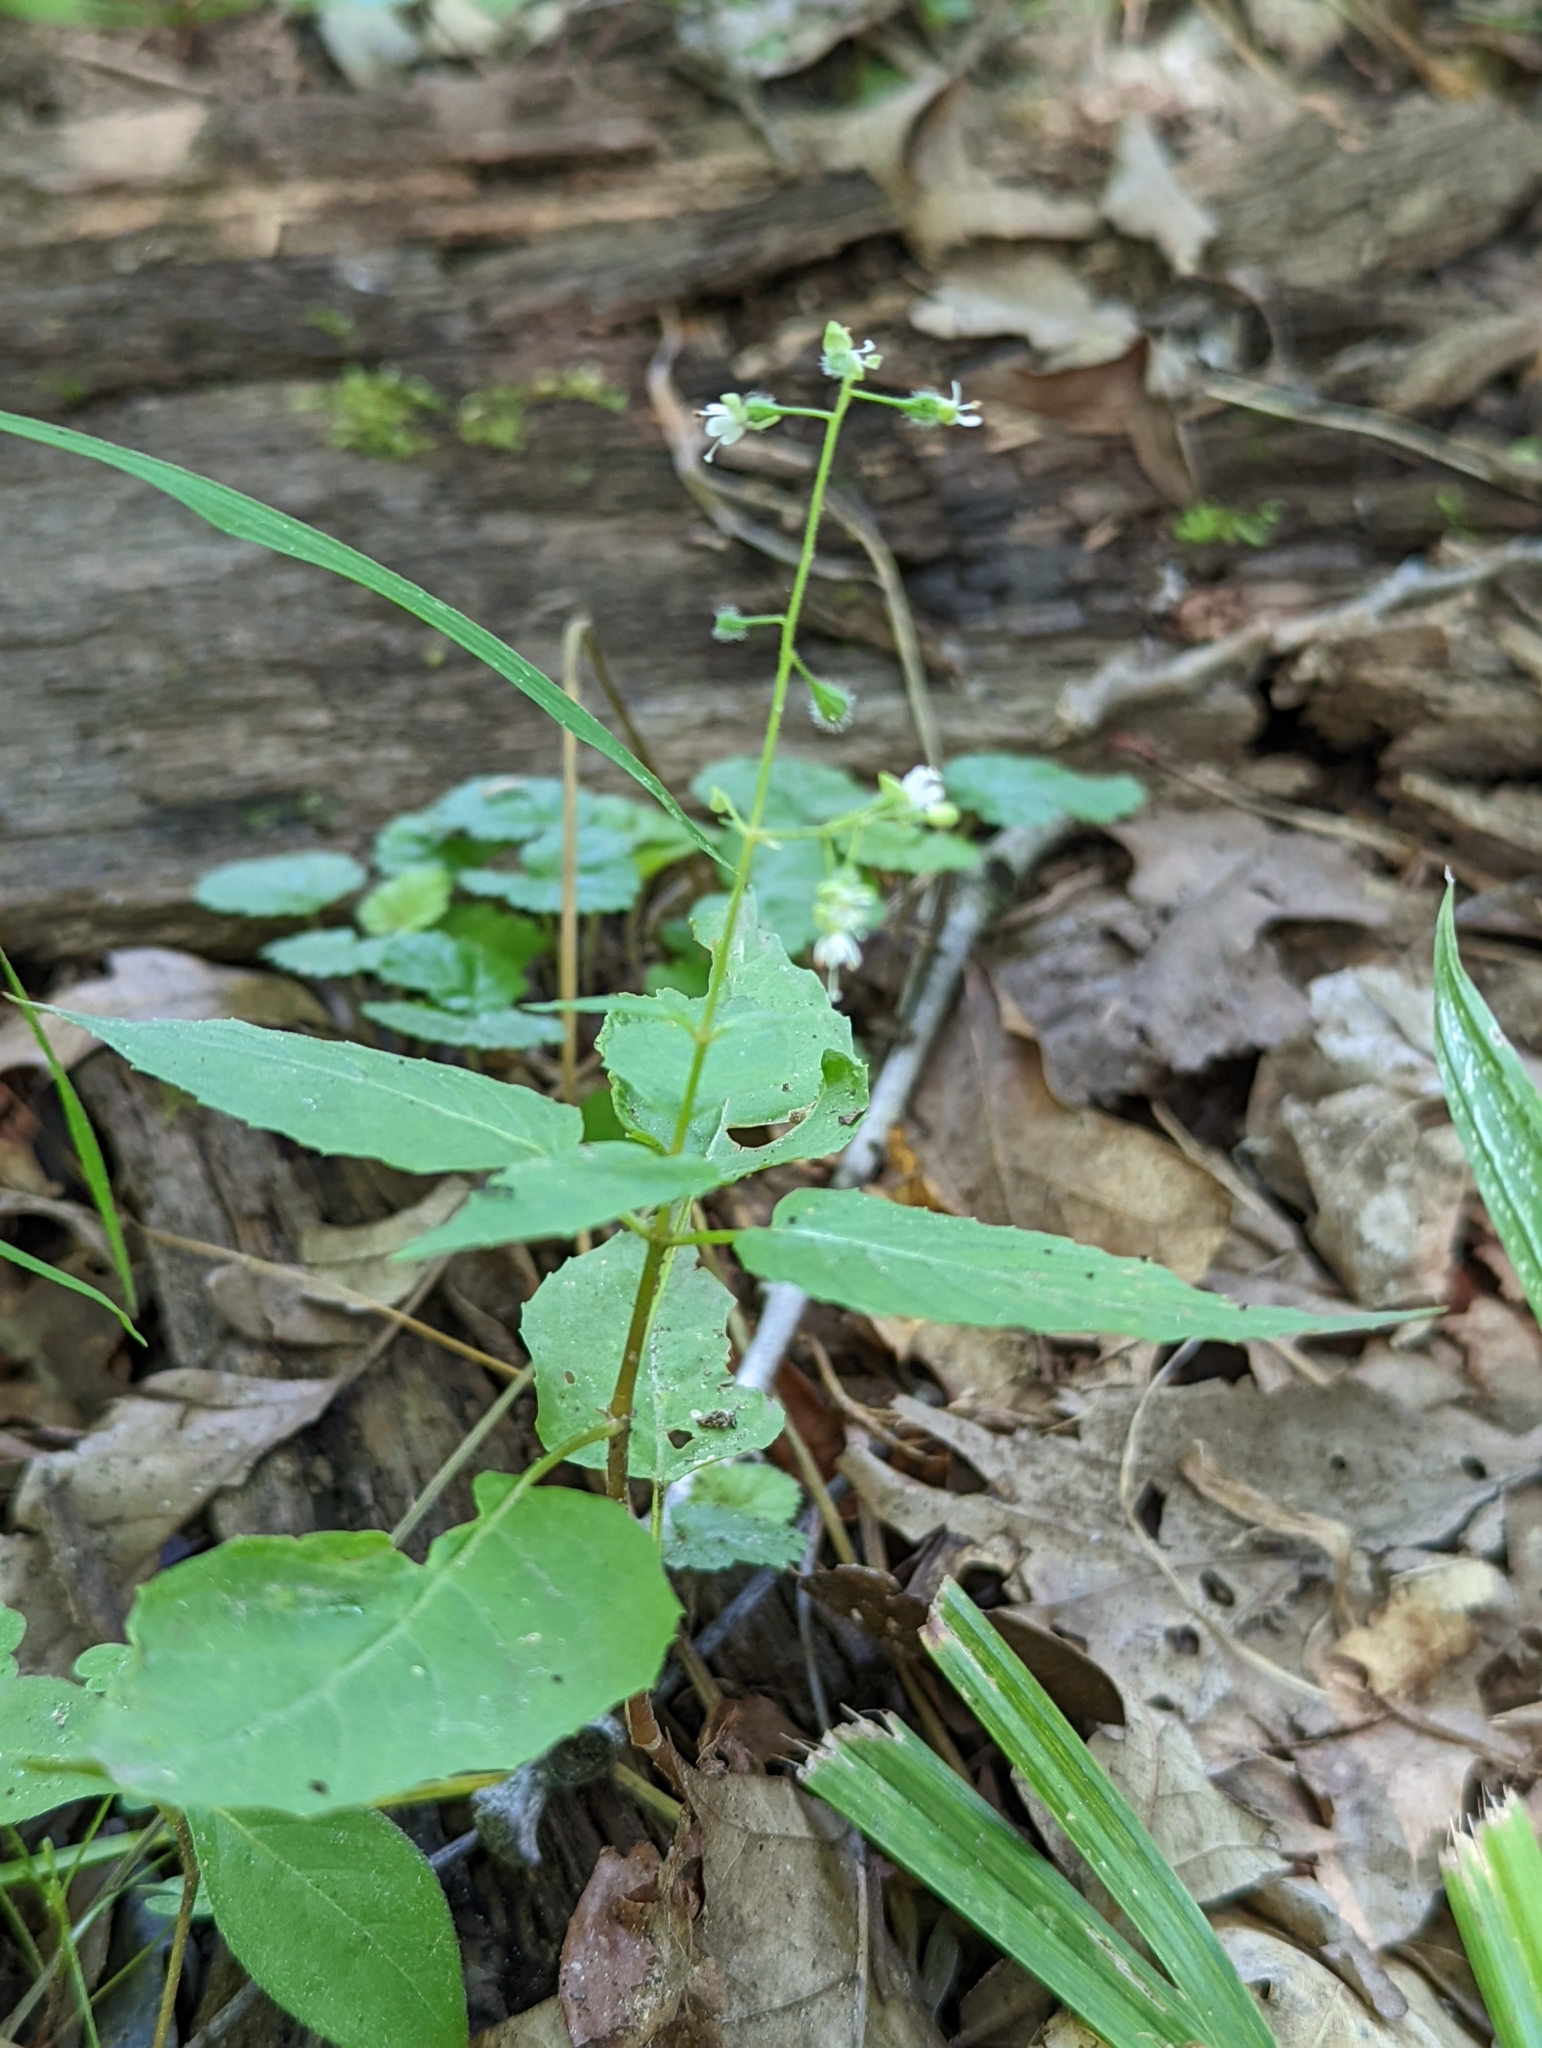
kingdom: Plantae
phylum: Tracheophyta
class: Magnoliopsida
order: Myrtales
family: Onagraceae
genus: Circaea
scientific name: Circaea canadensis
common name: Broad-leaved enchanter's nightshade
